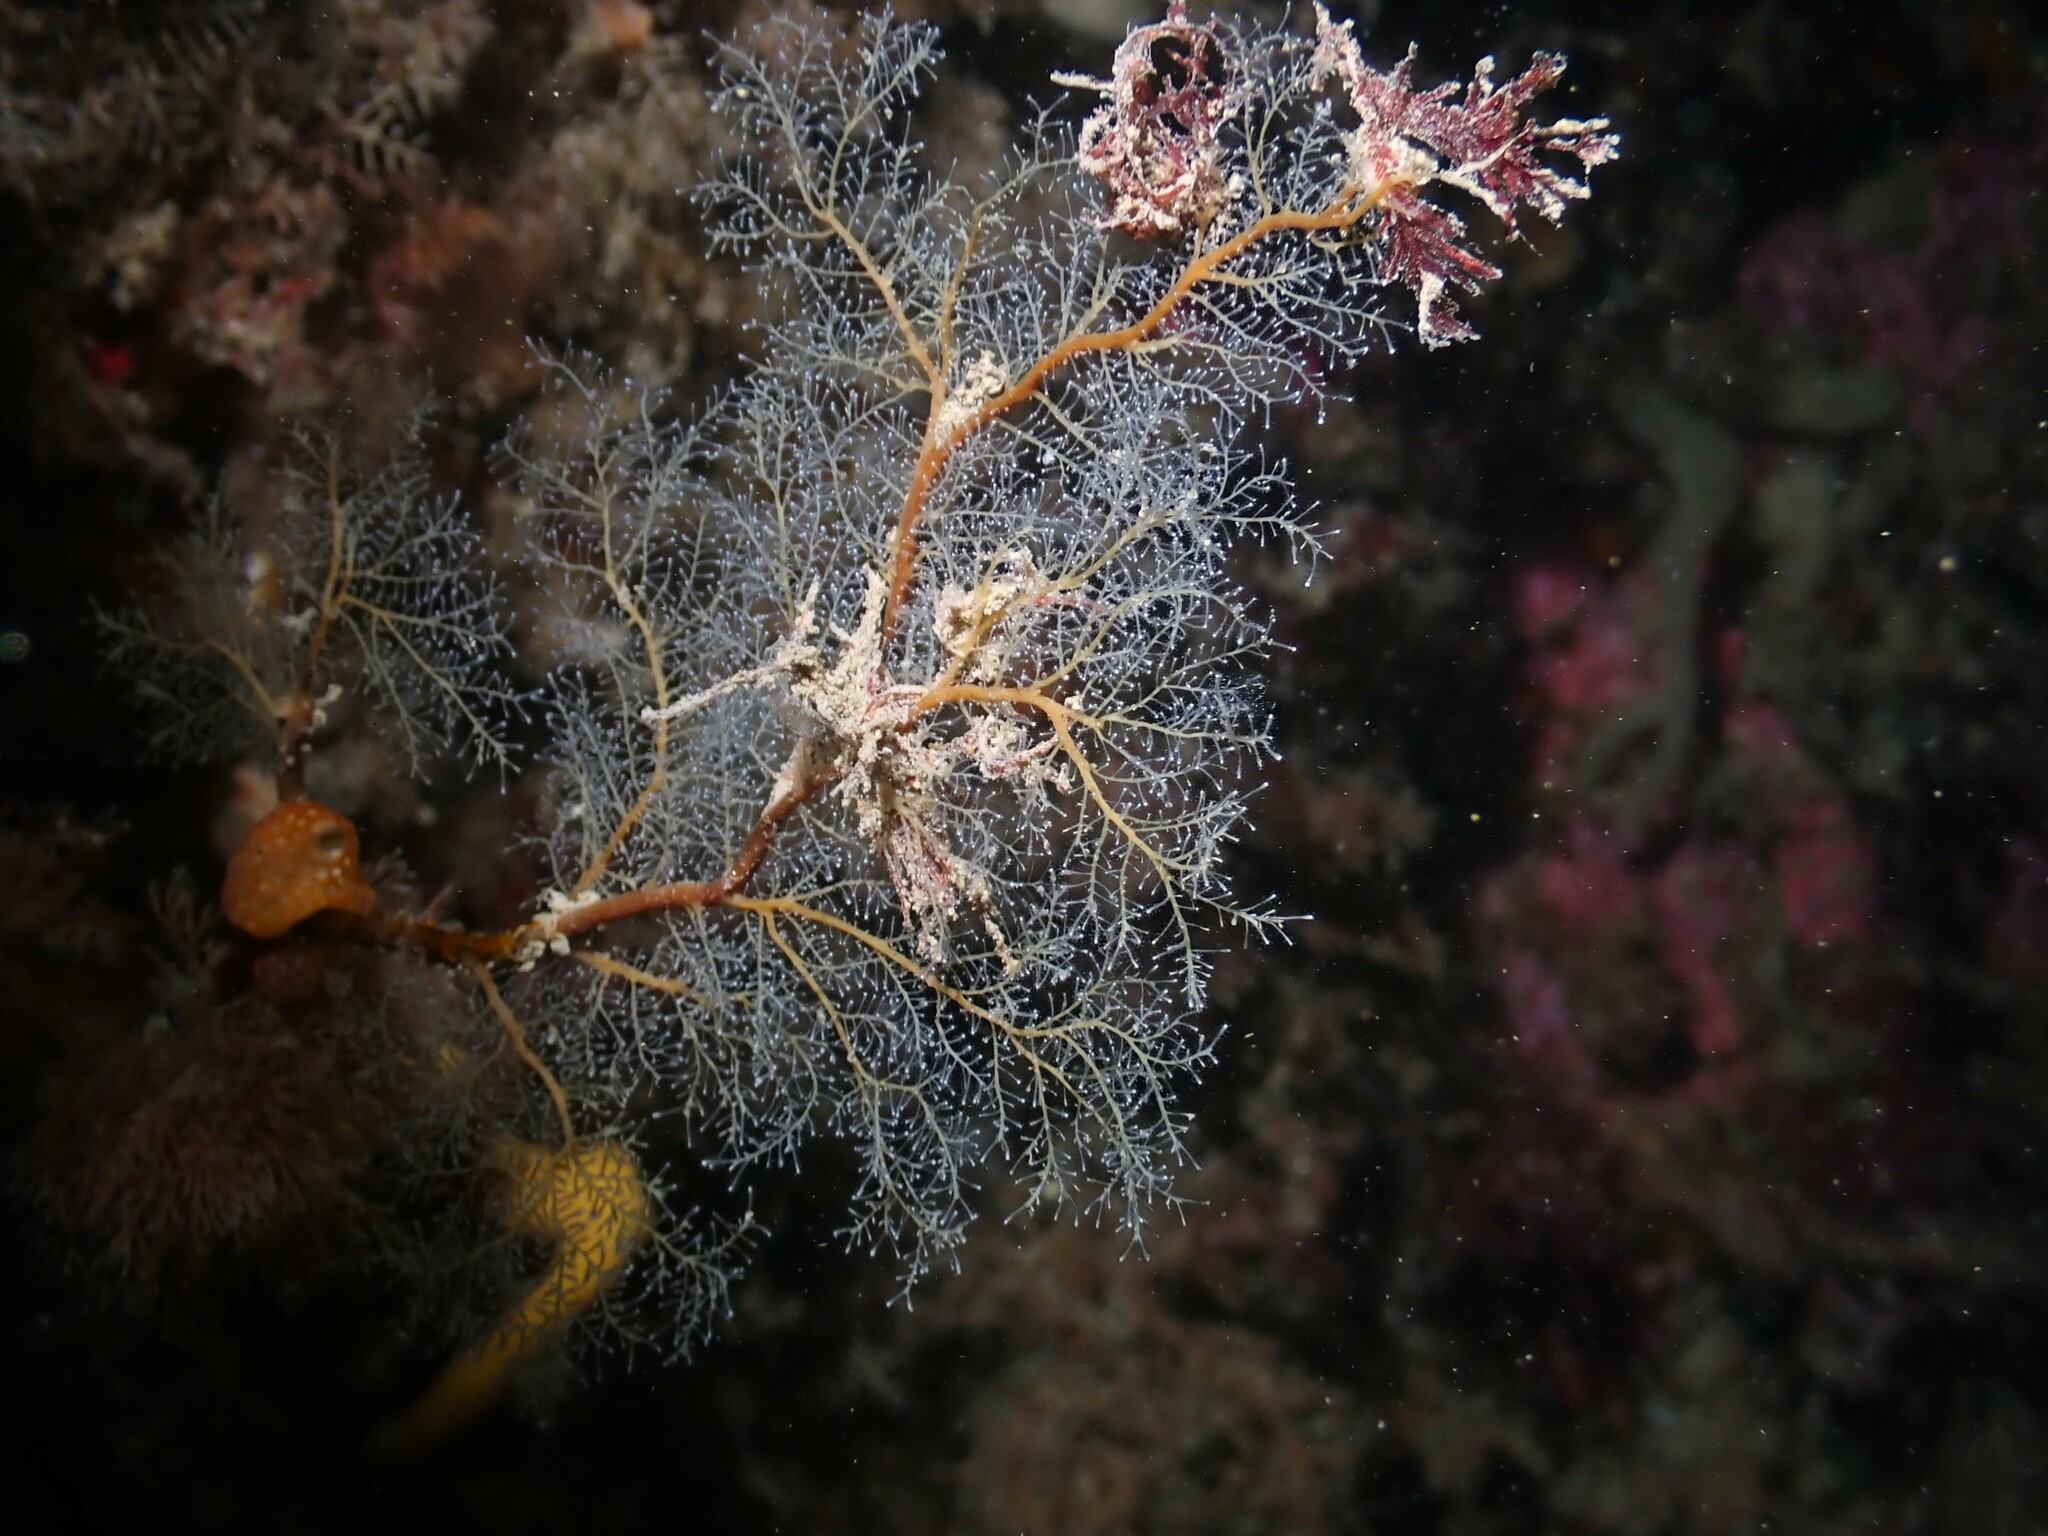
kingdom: Animalia
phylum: Cnidaria
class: Hydrozoa
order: Anthoathecata
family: Solanderiidae
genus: Solanderia
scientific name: Solanderia ericopsis
